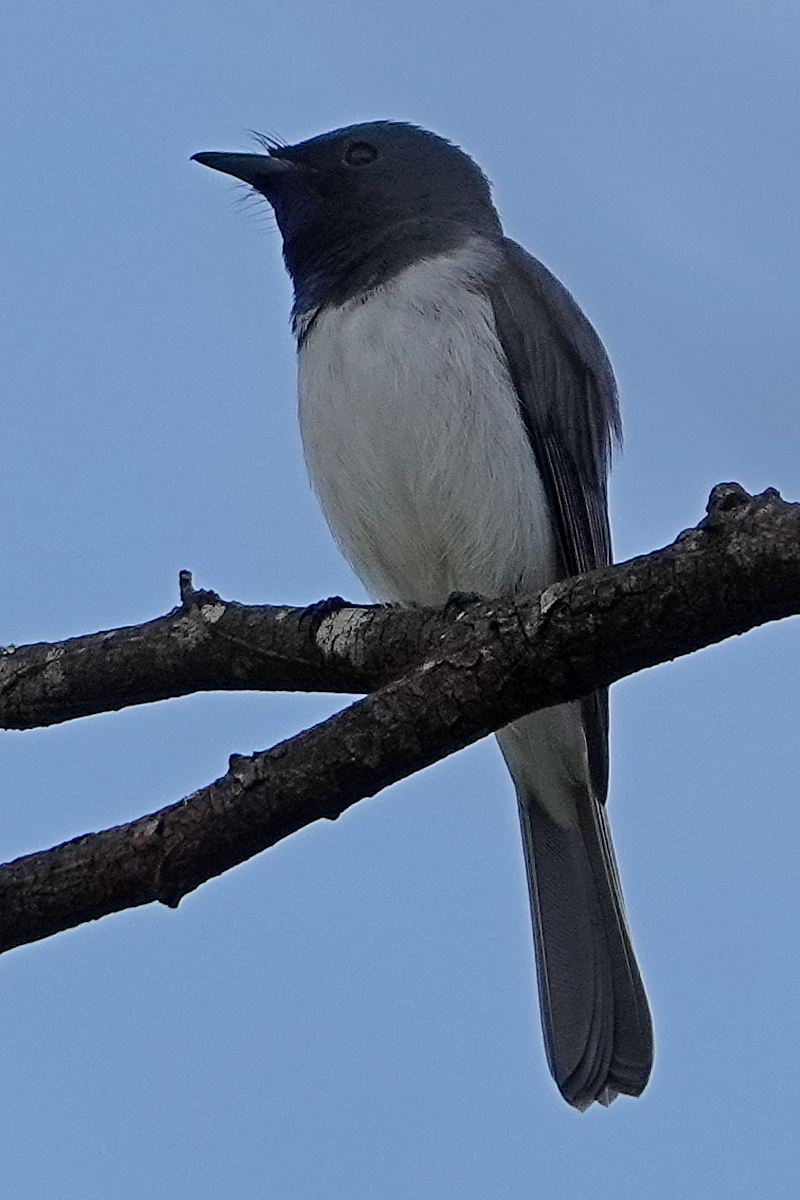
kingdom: Animalia
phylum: Chordata
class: Aves
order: Passeriformes
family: Monarchidae
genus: Myiagra
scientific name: Myiagra rubecula
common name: Leaden flycatcher
